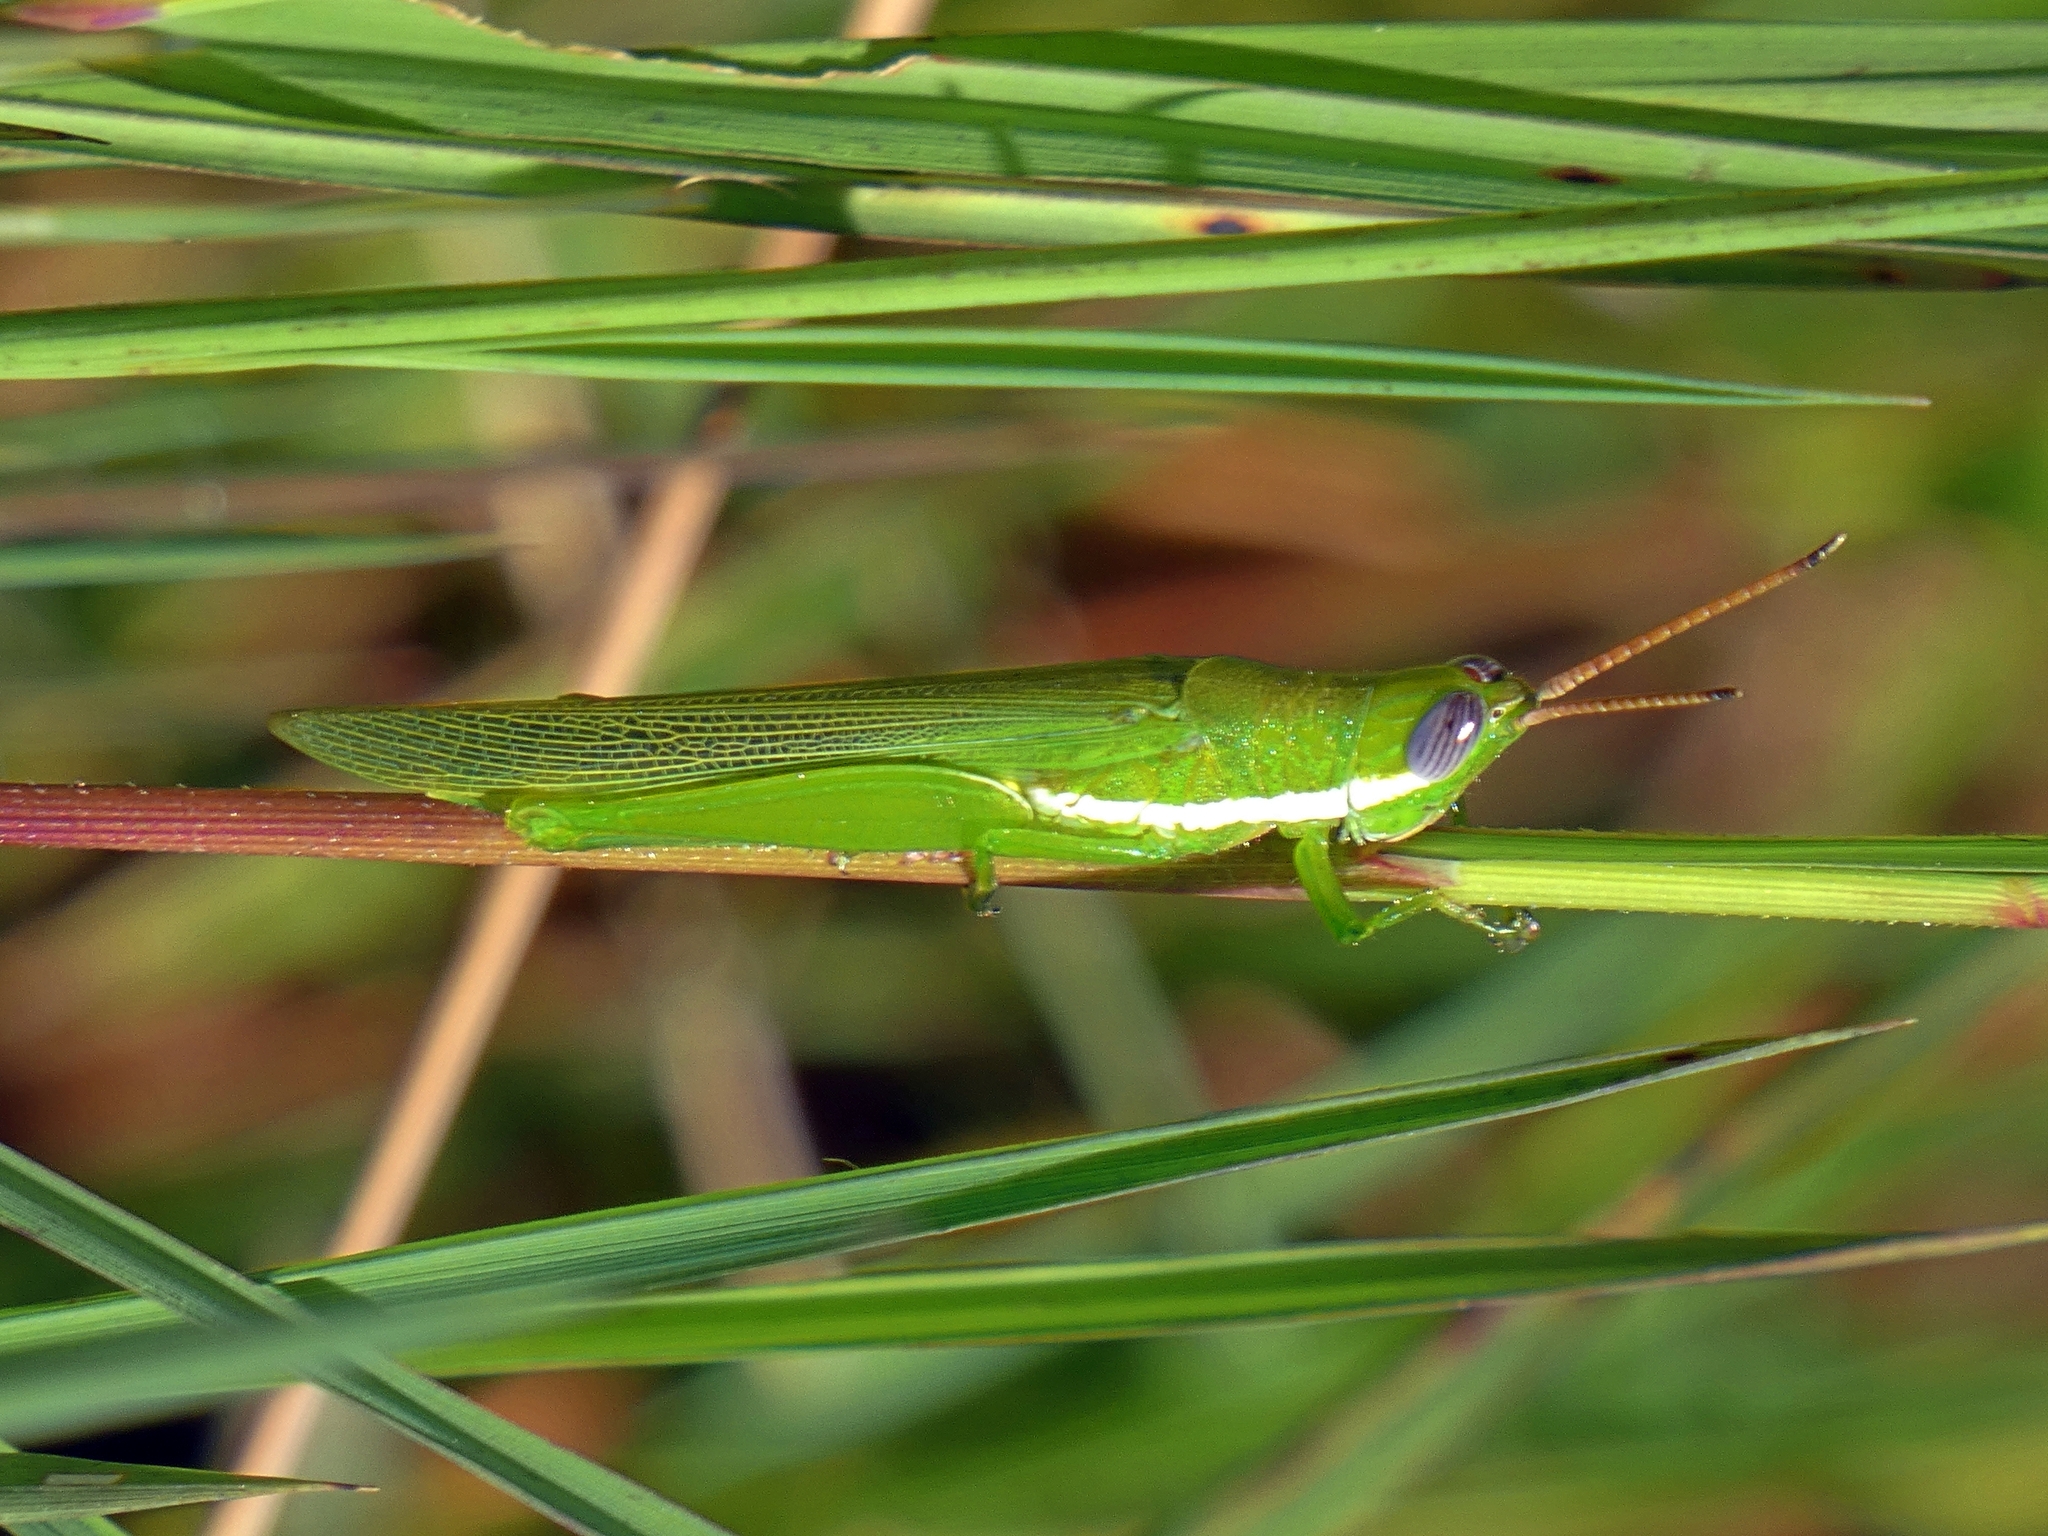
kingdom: Animalia
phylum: Arthropoda
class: Insecta
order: Orthoptera
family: Acrididae
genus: Stenacris
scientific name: Stenacris vitreipennis
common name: Glassy-winged toothpick grasshopper
